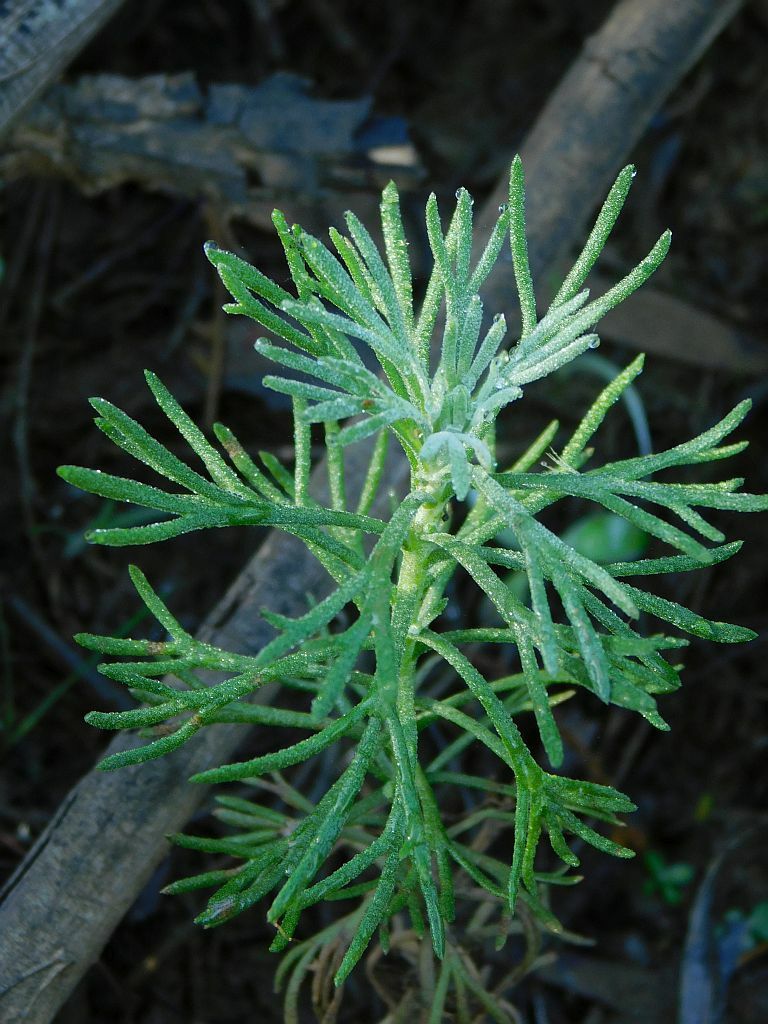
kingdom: Plantae
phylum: Tracheophyta
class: Magnoliopsida
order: Asterales
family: Asteraceae
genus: Hymenolepis
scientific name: Hymenolepis crithmifolia
